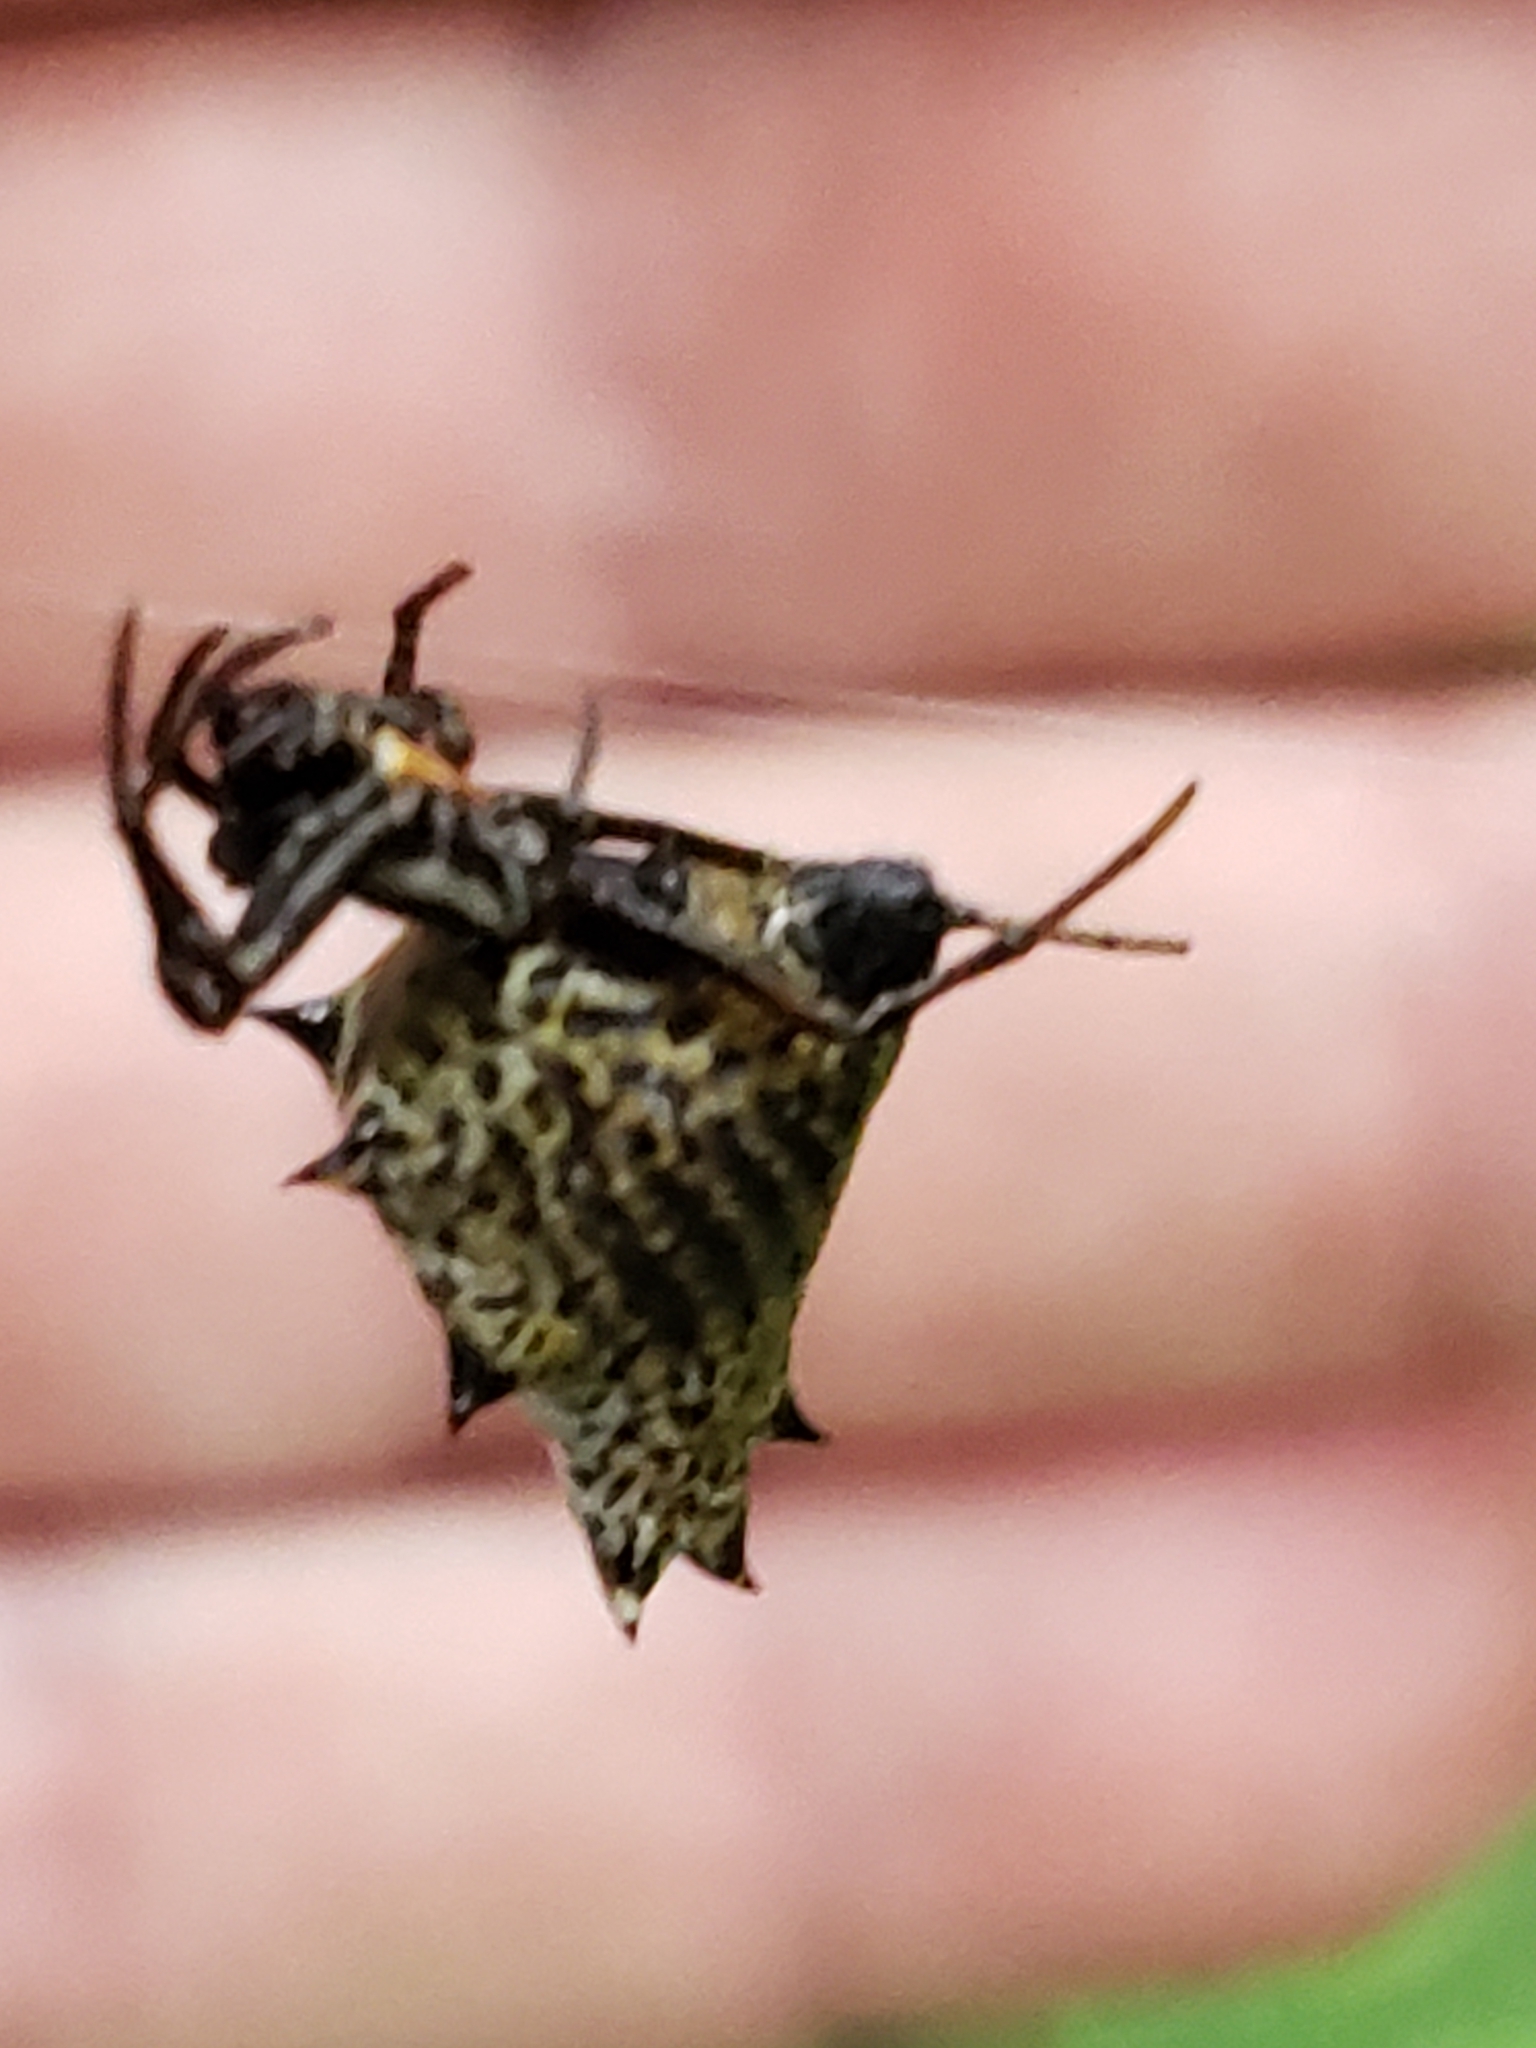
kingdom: Animalia
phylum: Arthropoda
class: Arachnida
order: Araneae
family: Araneidae
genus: Micrathena
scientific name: Micrathena gracilis
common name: Orb weavers
